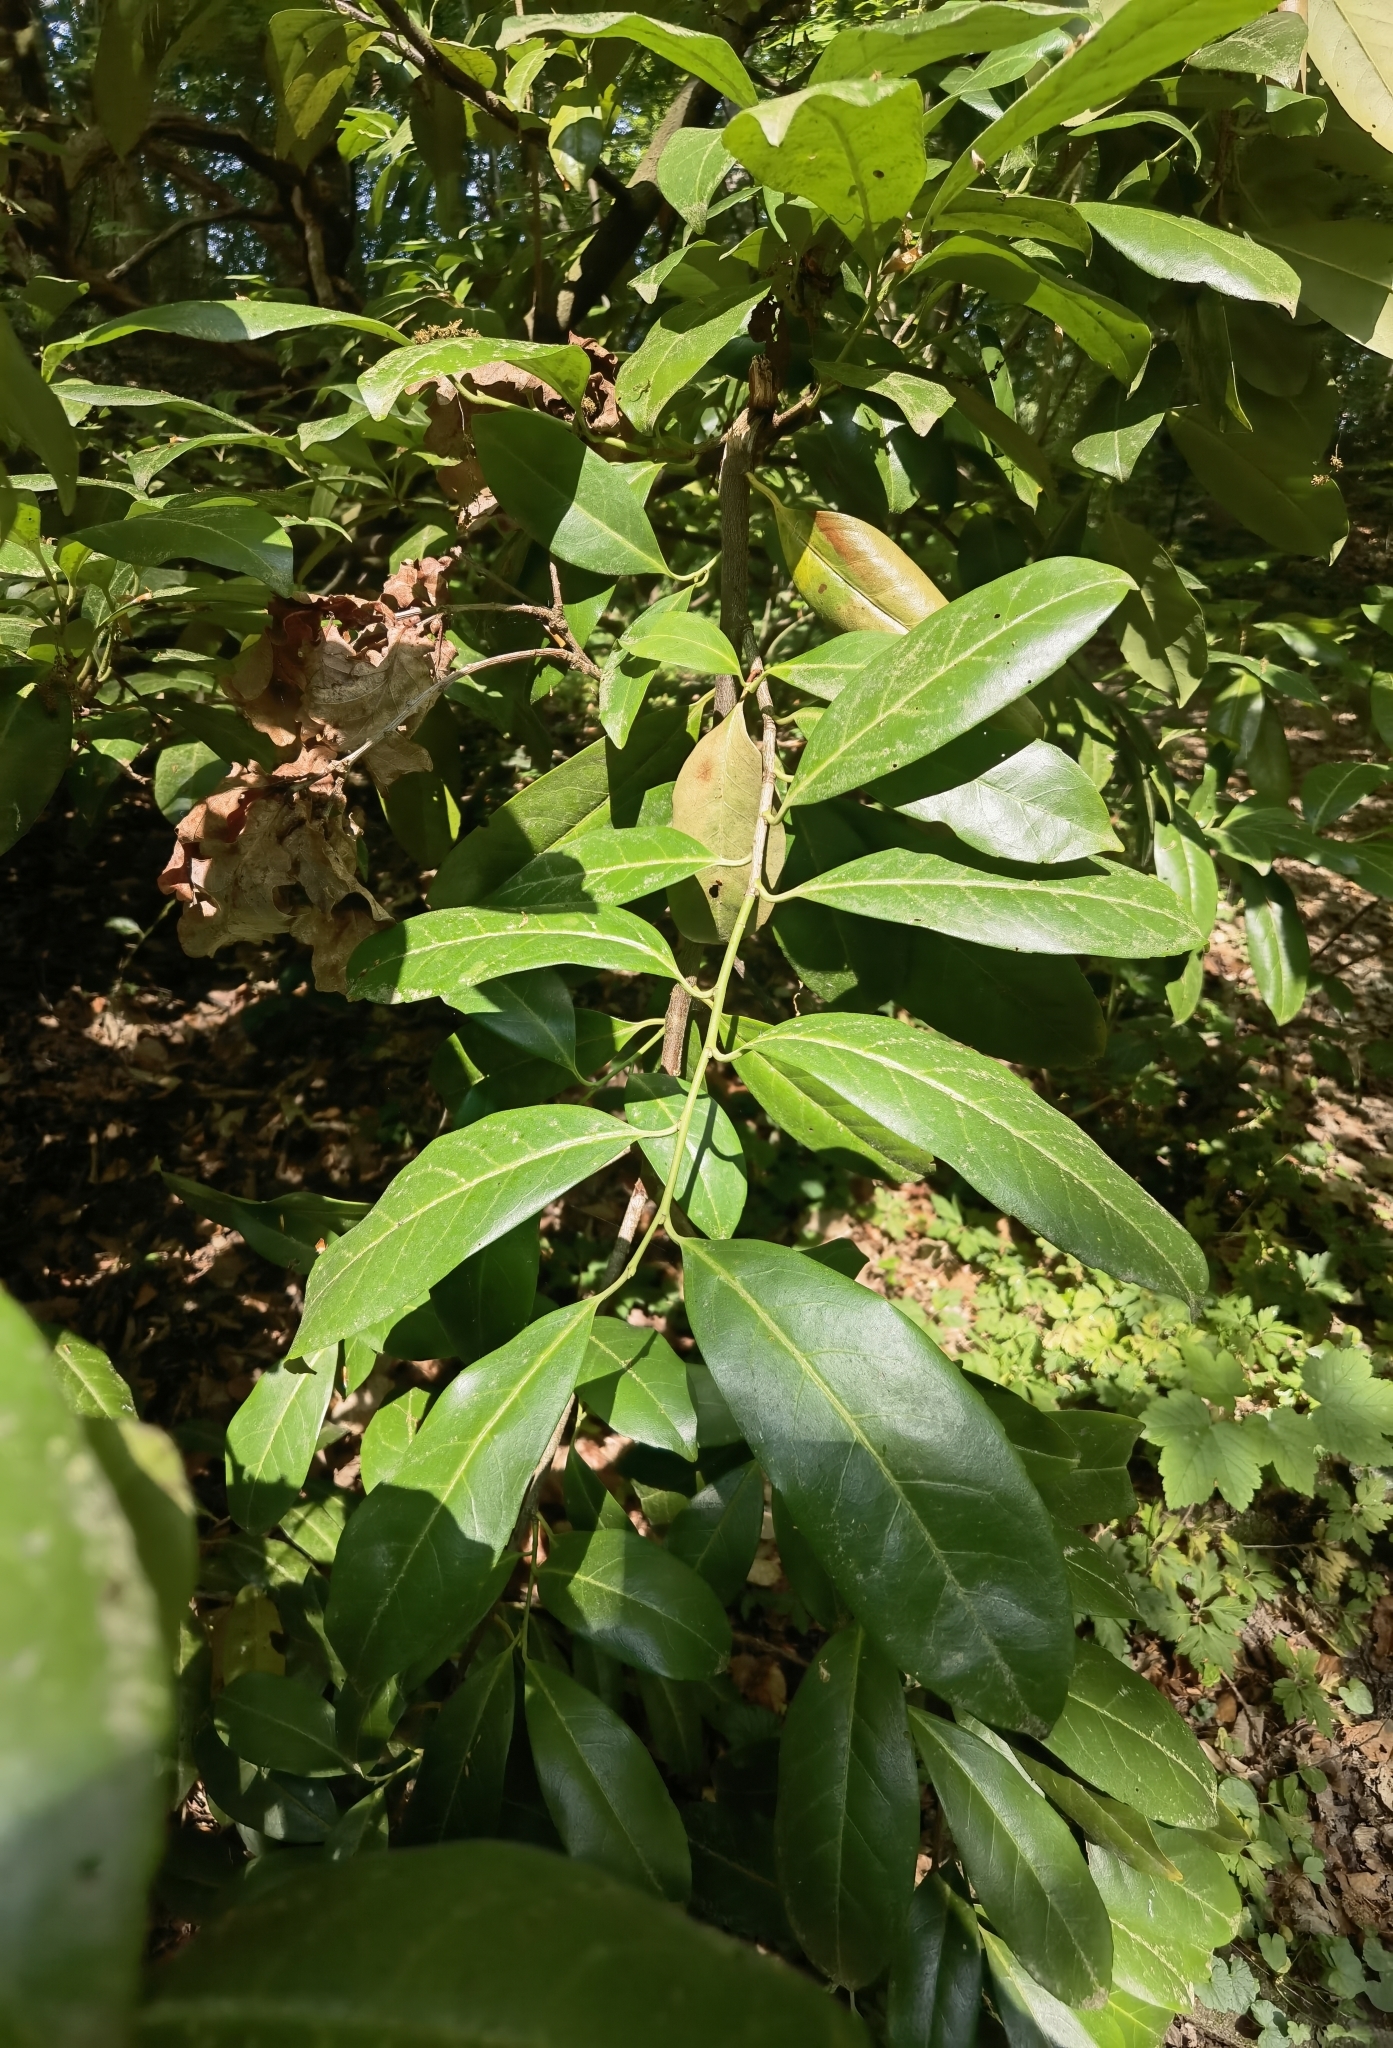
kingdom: Plantae
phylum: Tracheophyta
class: Magnoliopsida
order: Rosales
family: Rosaceae
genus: Prunus
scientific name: Prunus laurocerasus
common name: Cherry laurel
